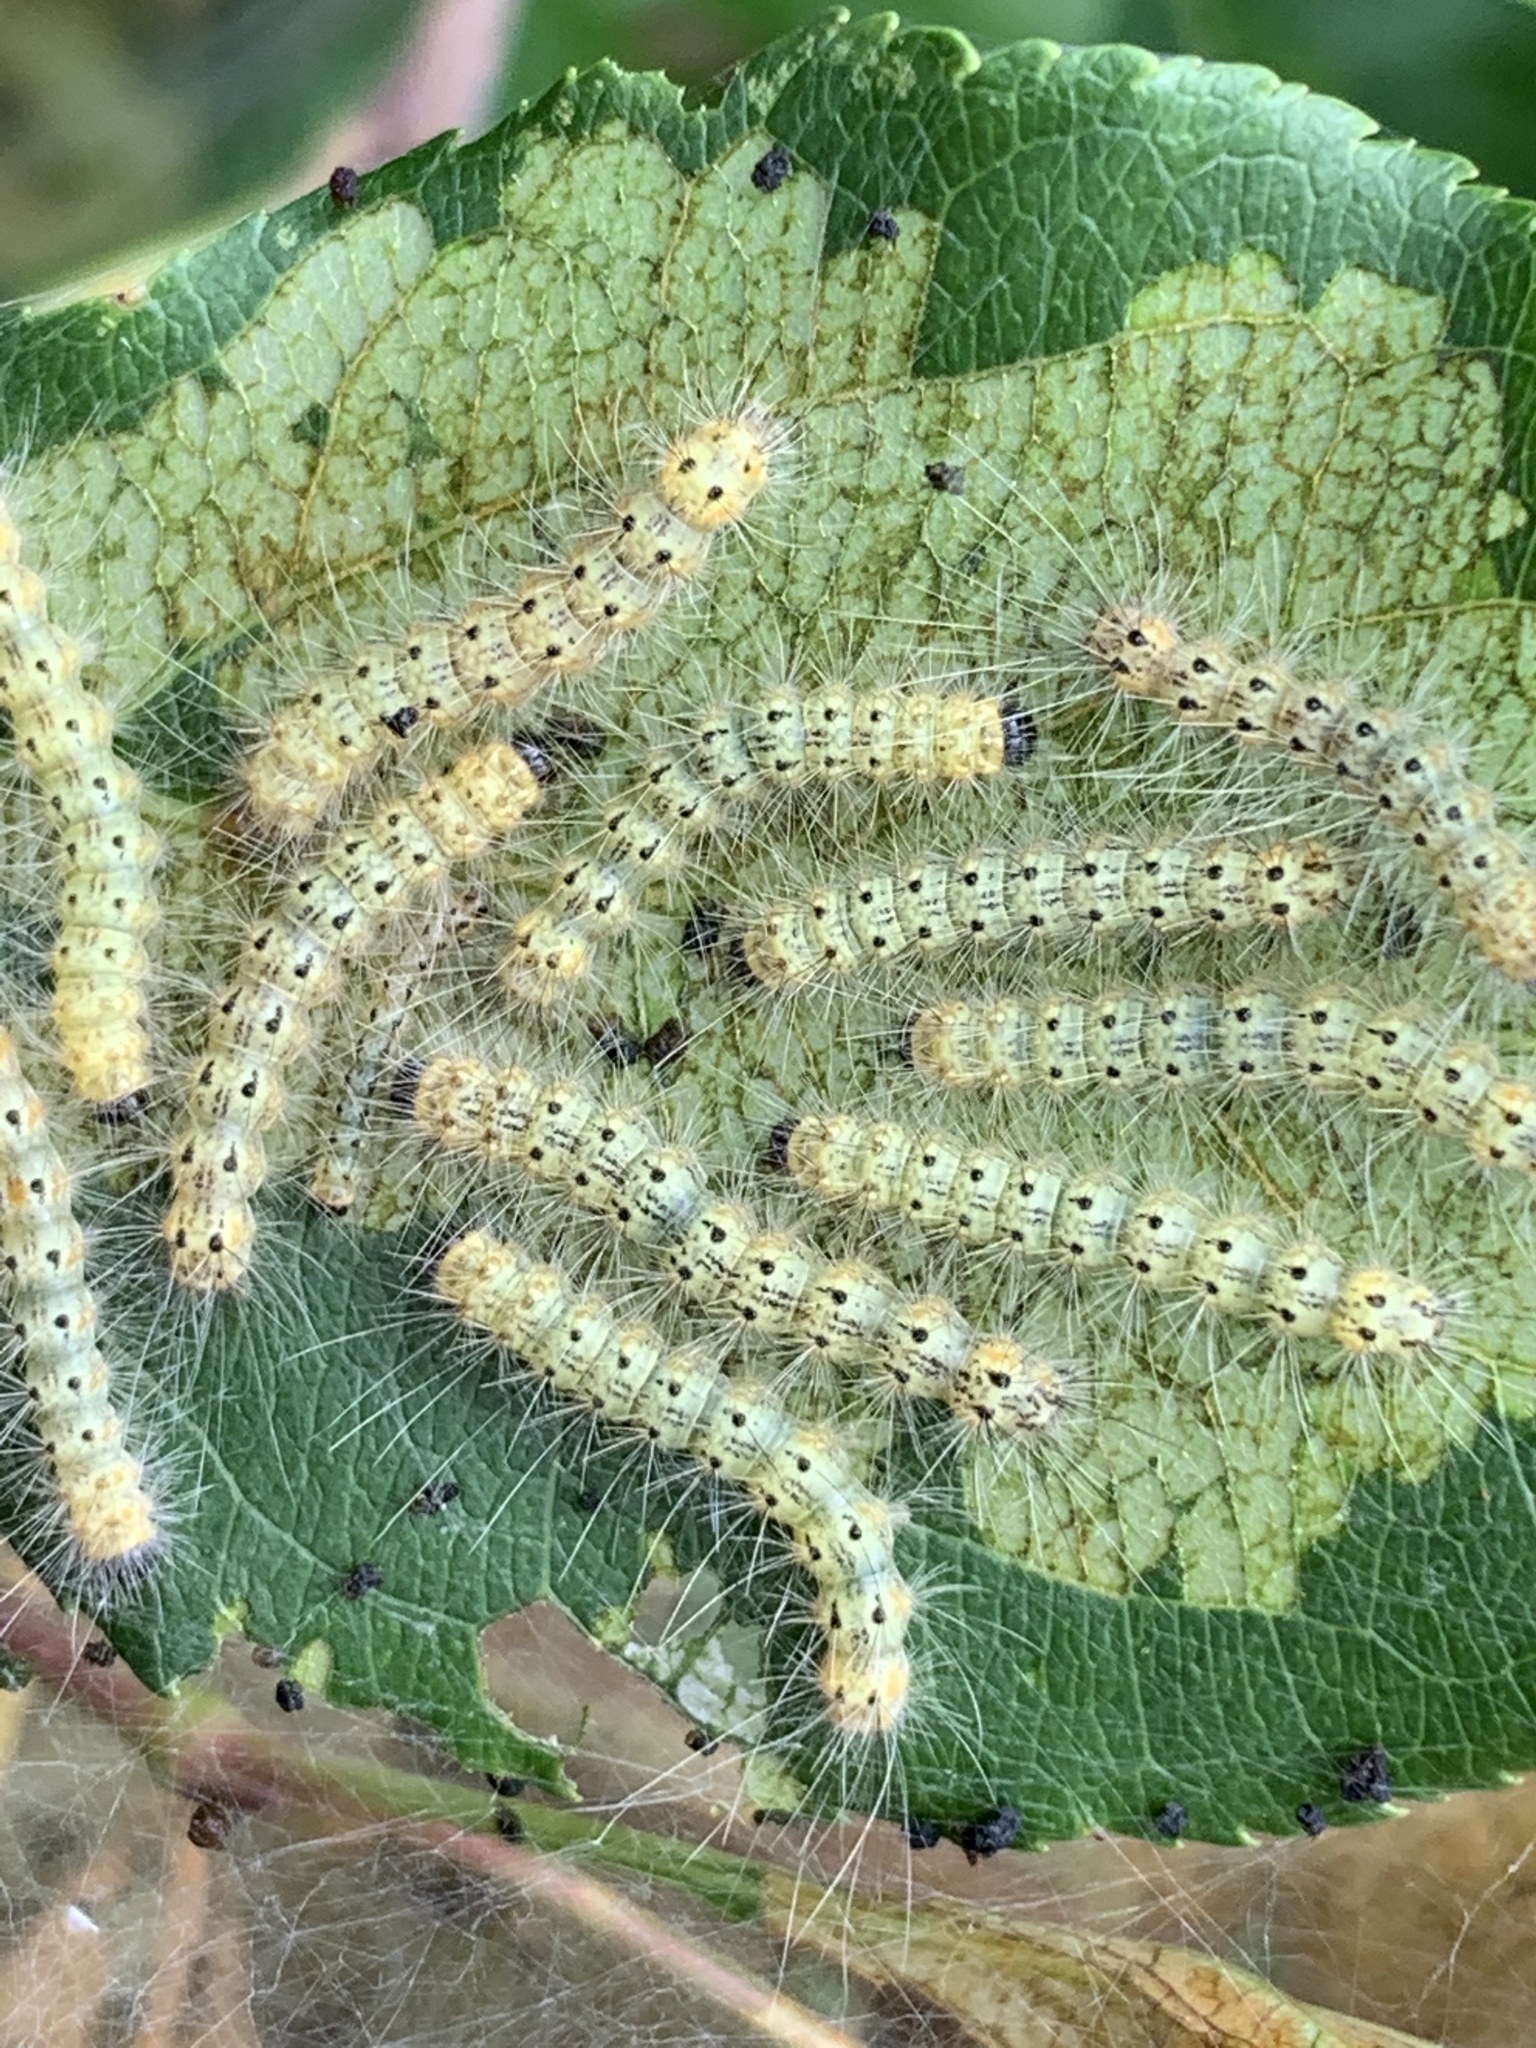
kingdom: Animalia
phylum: Arthropoda
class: Insecta
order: Lepidoptera
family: Erebidae
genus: Hyphantria
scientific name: Hyphantria cunea
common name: American white moth
